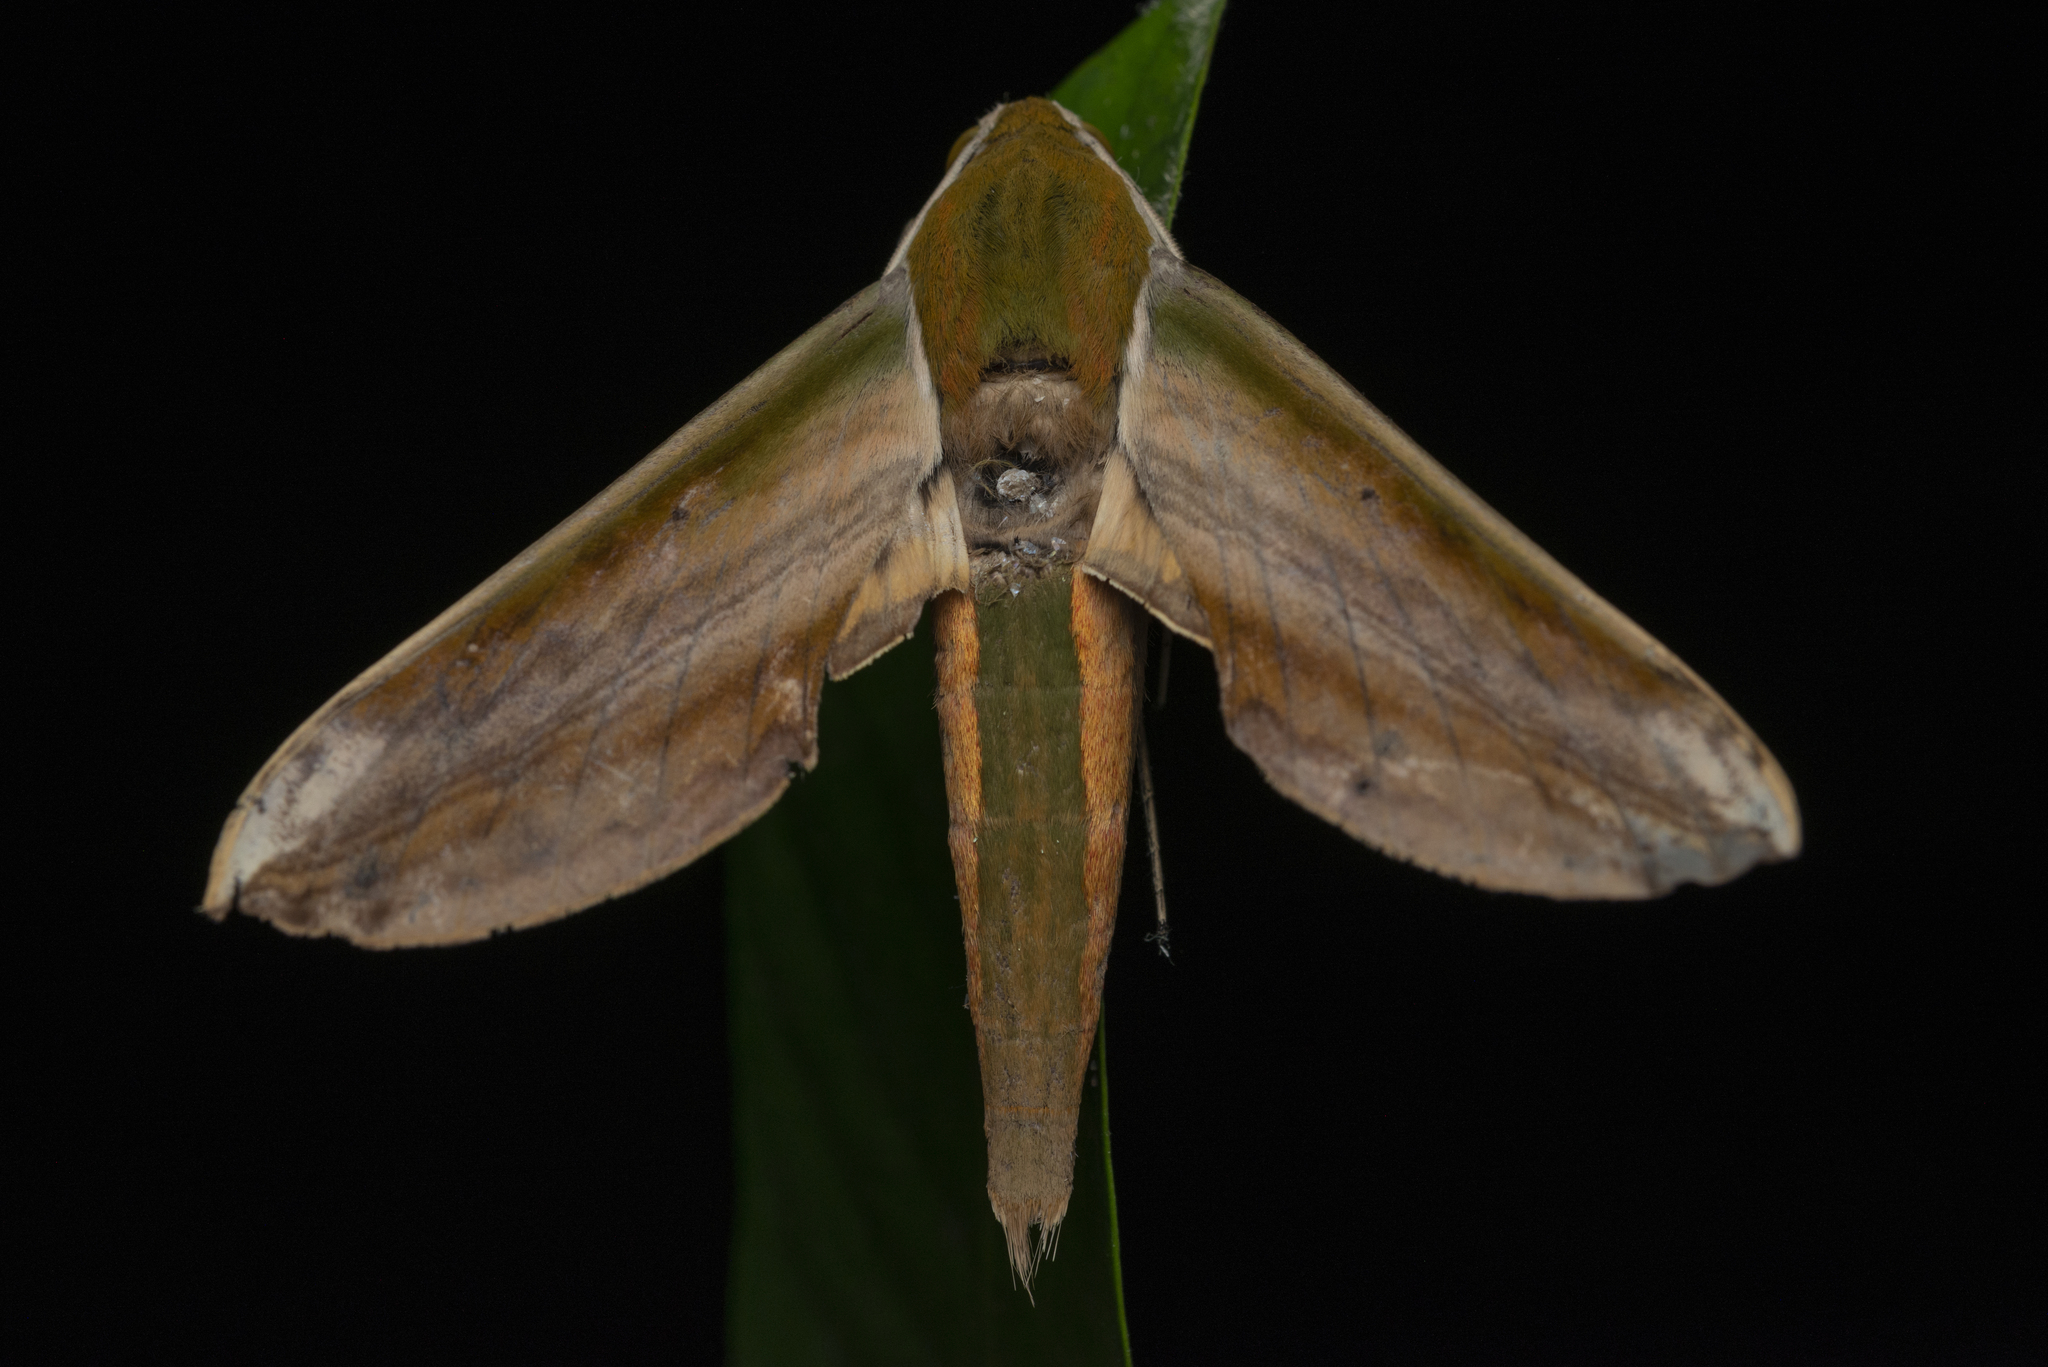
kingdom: Animalia
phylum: Arthropoda
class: Insecta
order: Lepidoptera
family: Sphingidae
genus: Theretra
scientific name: Theretra nessus
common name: Yam hawk moth
